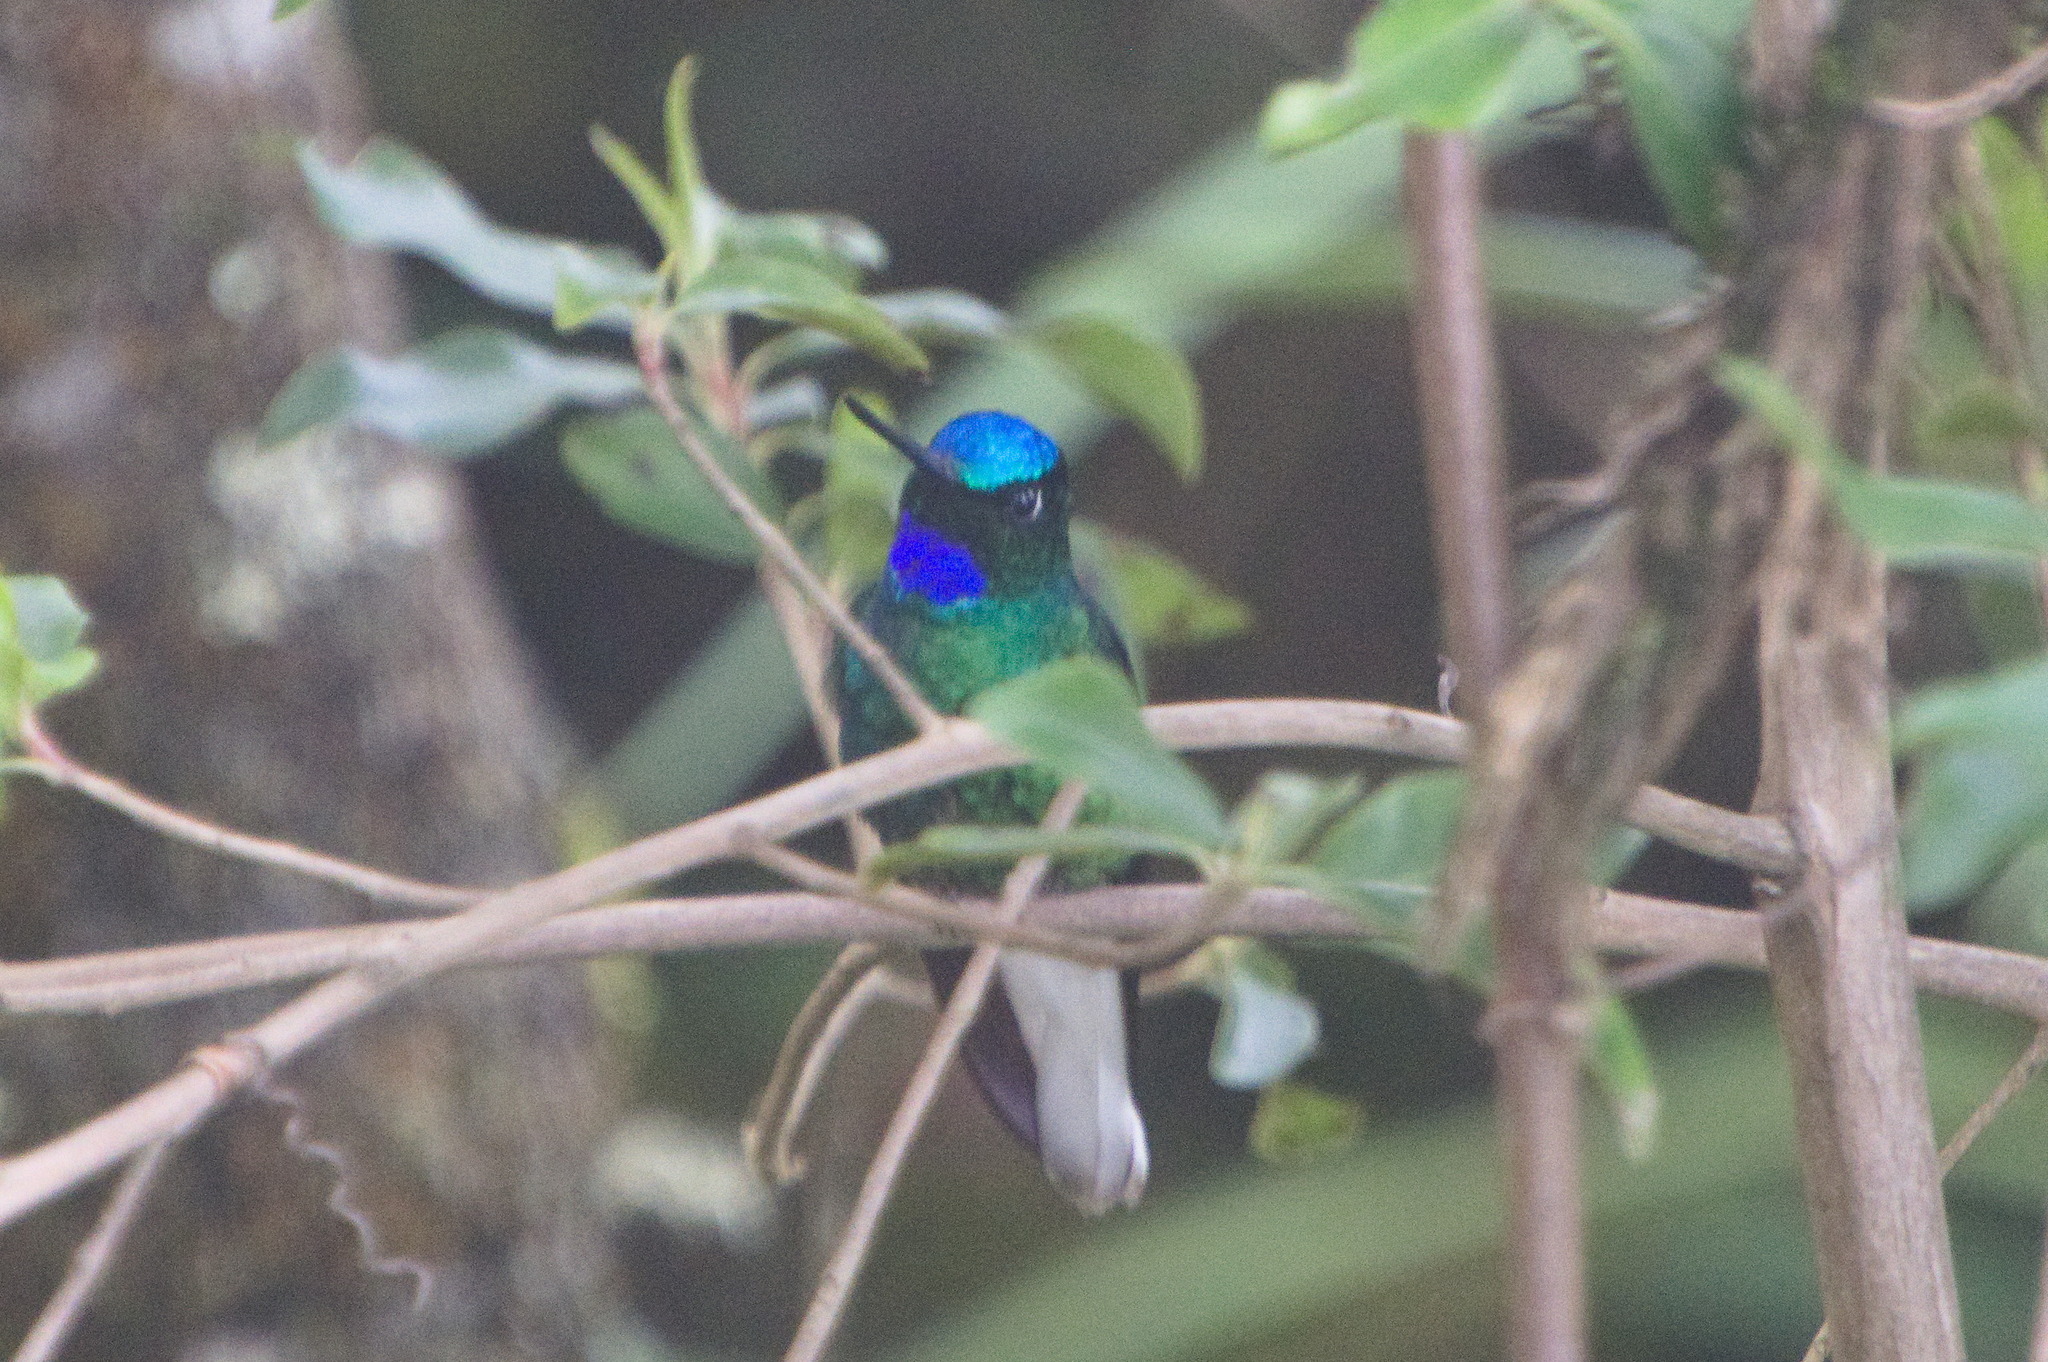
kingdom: Animalia
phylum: Chordata
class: Aves
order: Apodiformes
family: Trochilidae
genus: Coeligena
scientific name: Coeligena phalerata
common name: White-tailed starfrontlet
